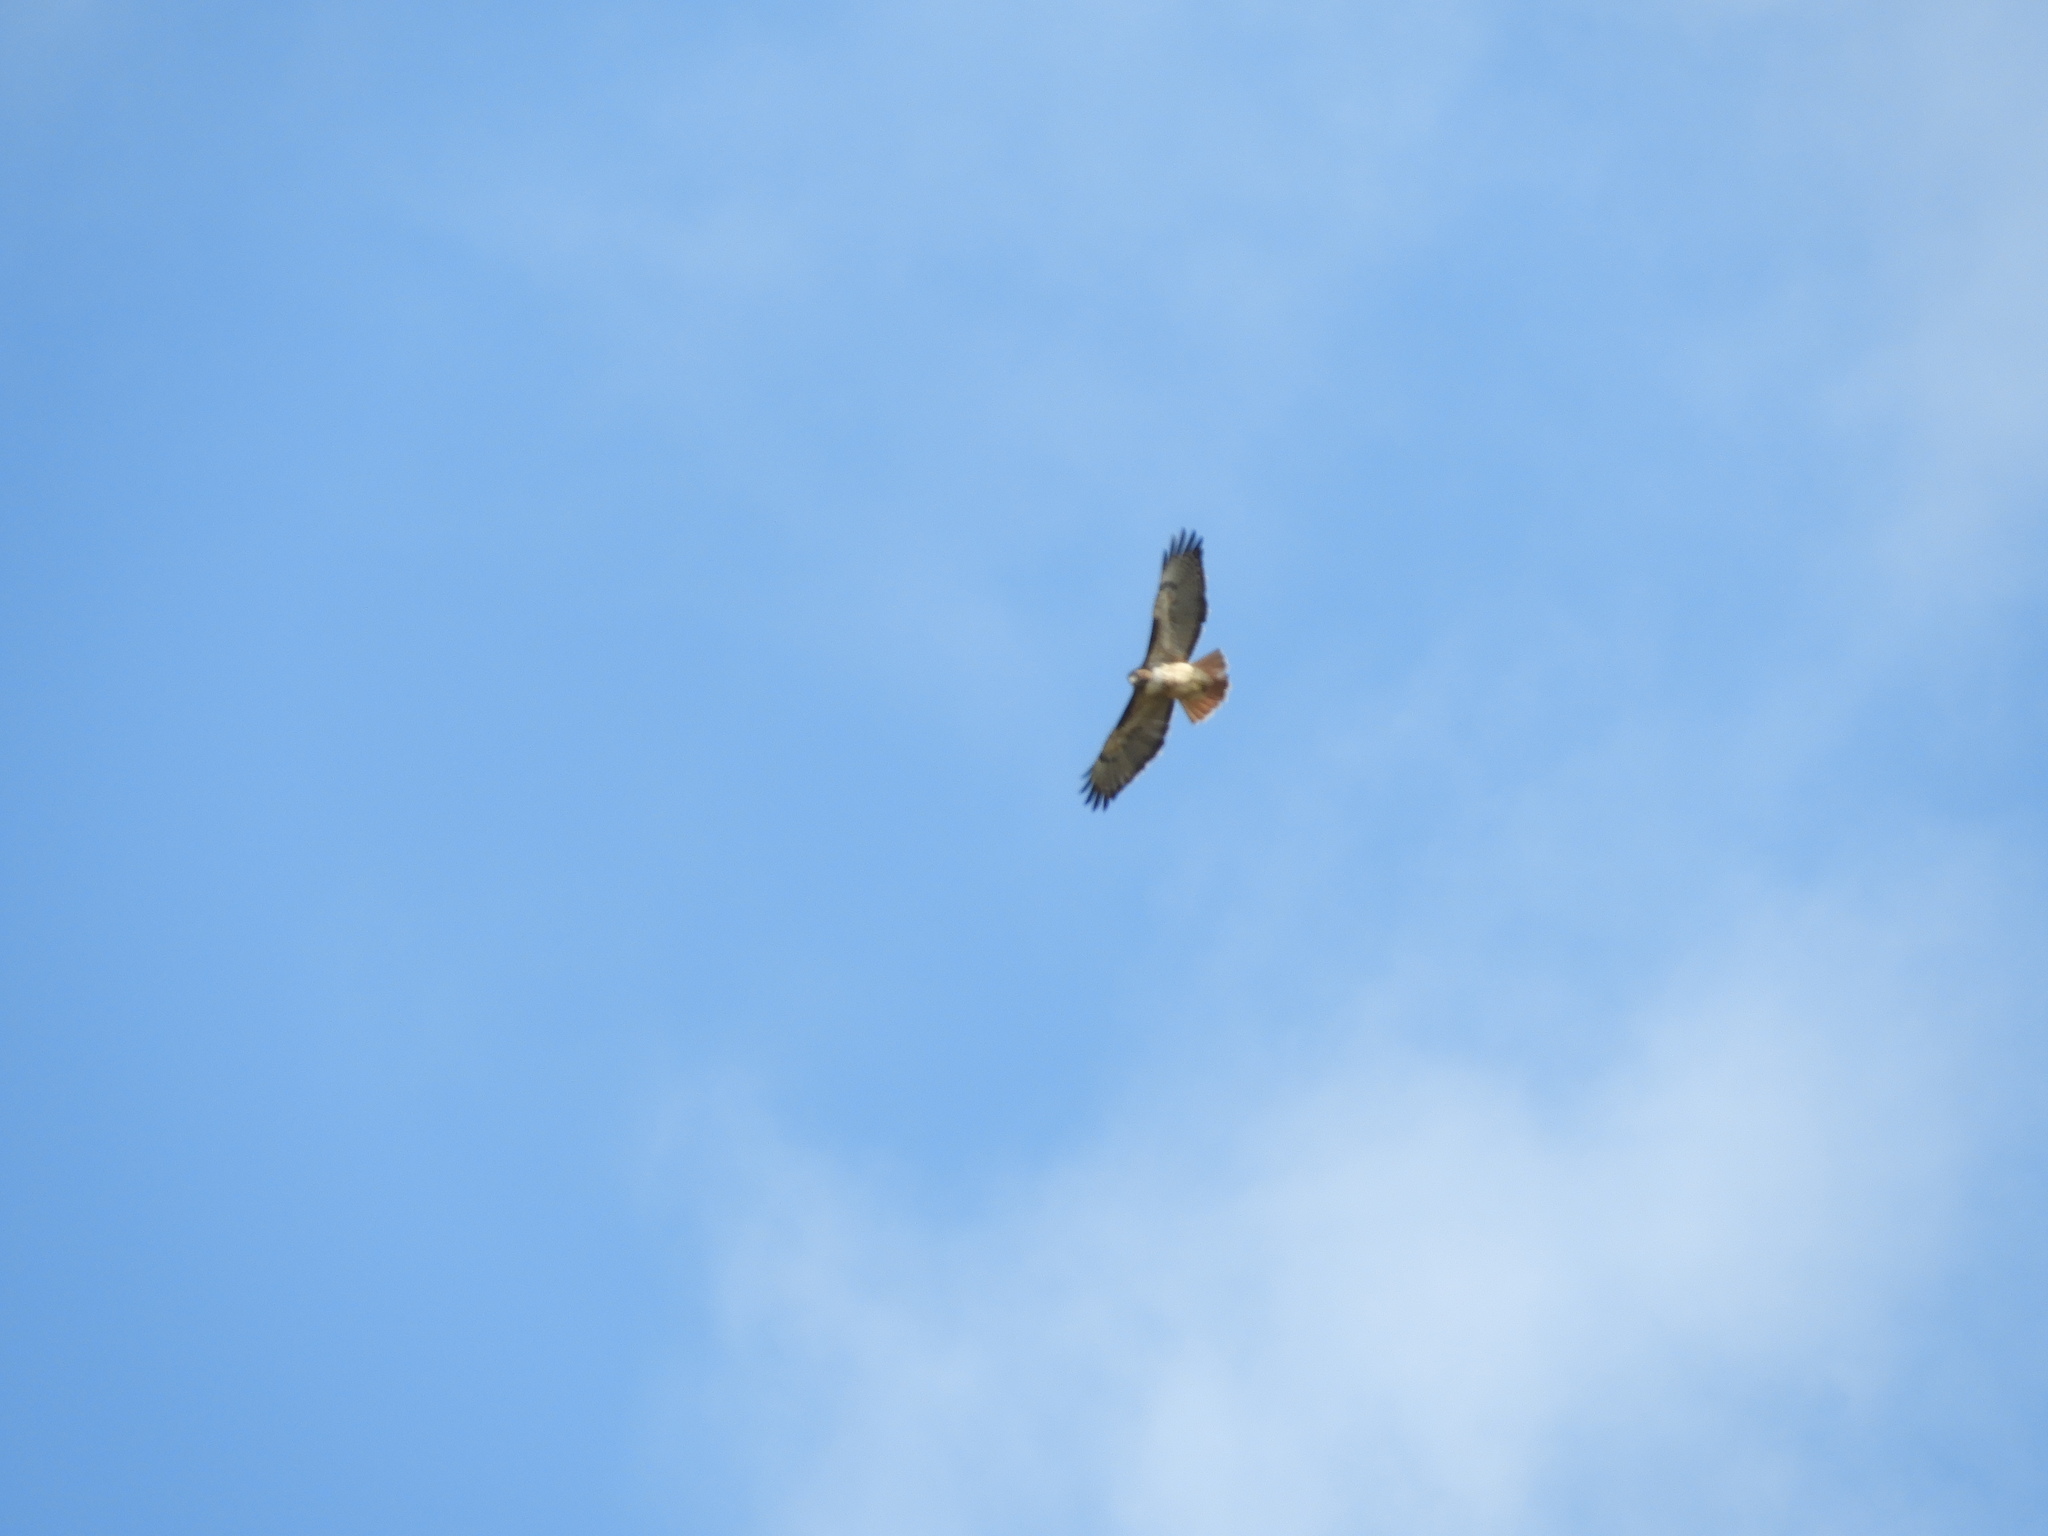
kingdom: Animalia
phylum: Chordata
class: Aves
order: Accipitriformes
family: Accipitridae
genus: Buteo
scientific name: Buteo jamaicensis
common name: Red-tailed hawk
